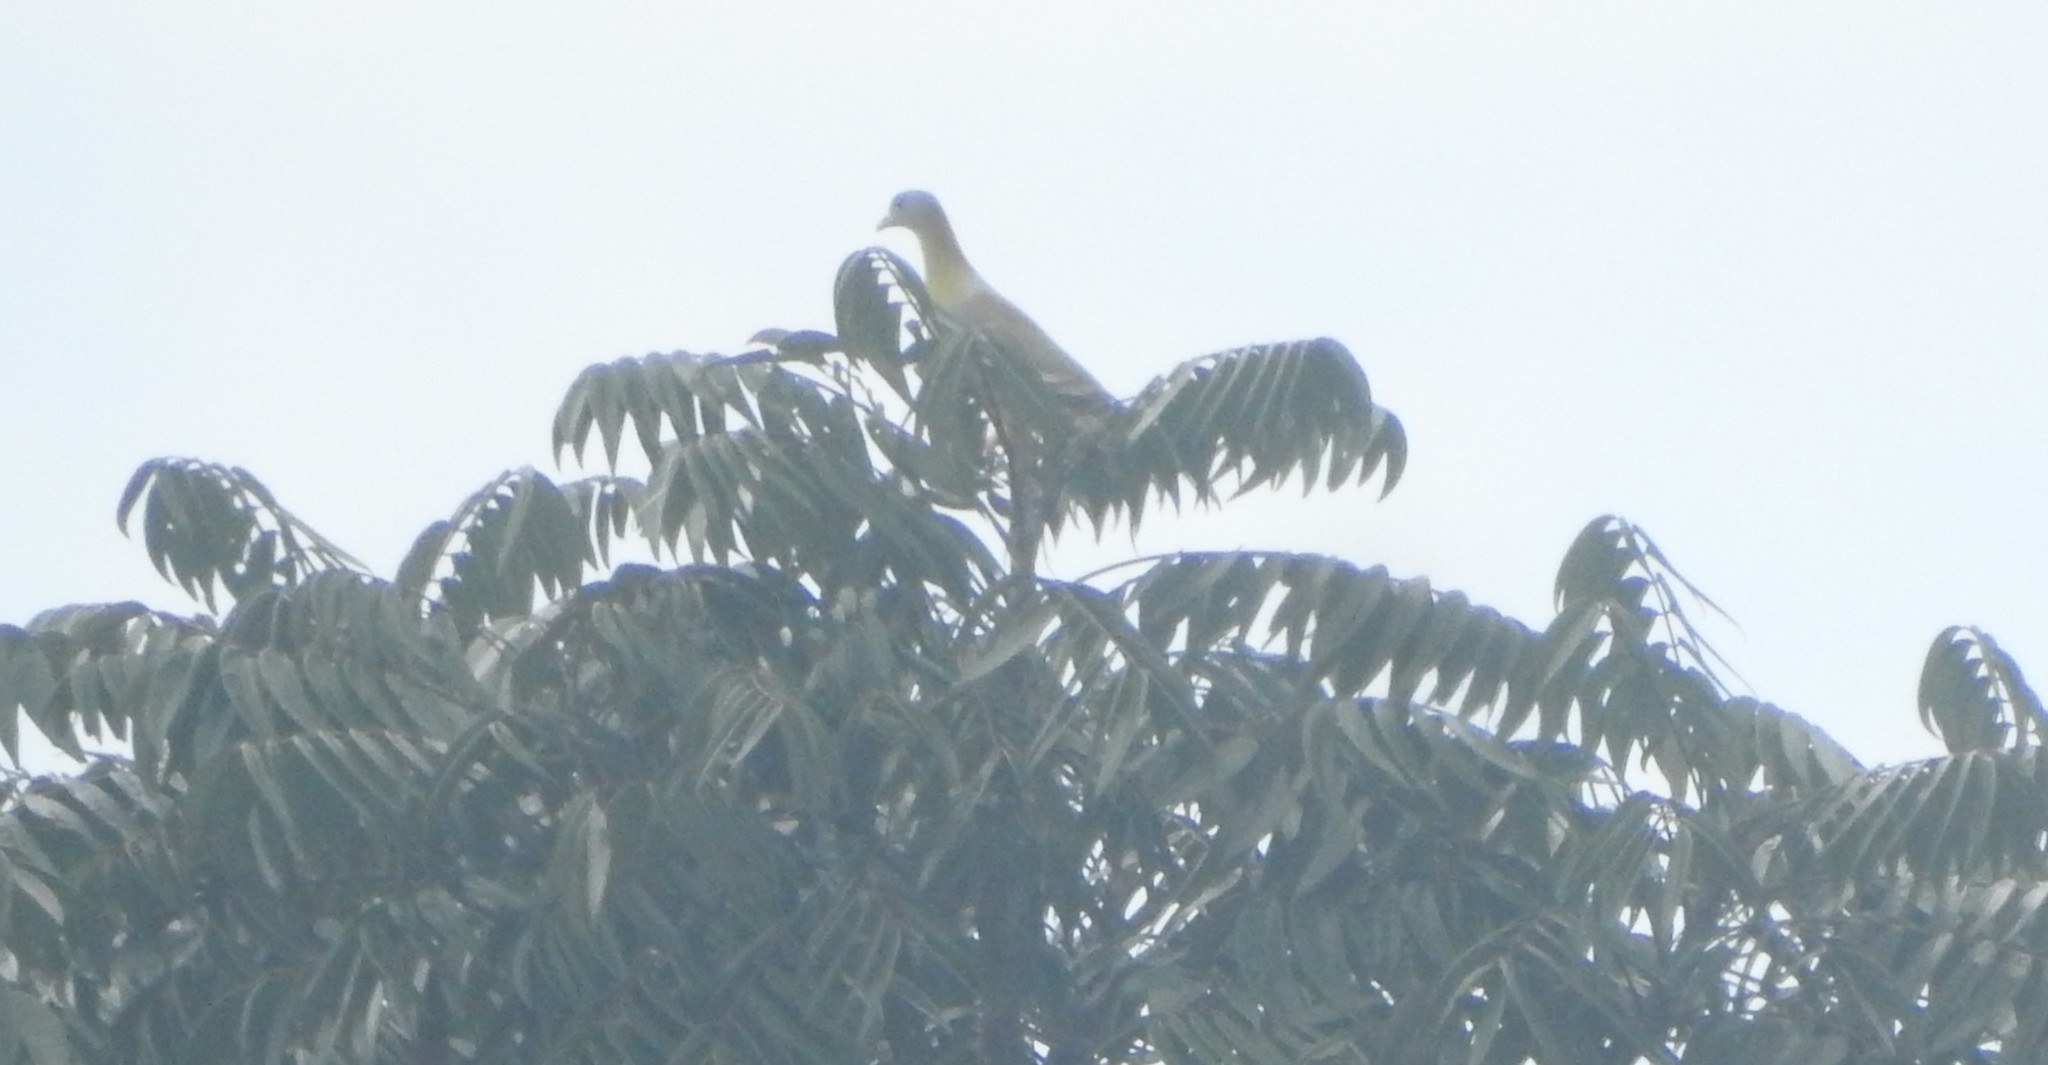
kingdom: Animalia
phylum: Chordata
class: Aves
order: Columbiformes
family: Columbidae
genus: Treron
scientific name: Treron phoenicopterus
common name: Yellow-footed green pigeon
